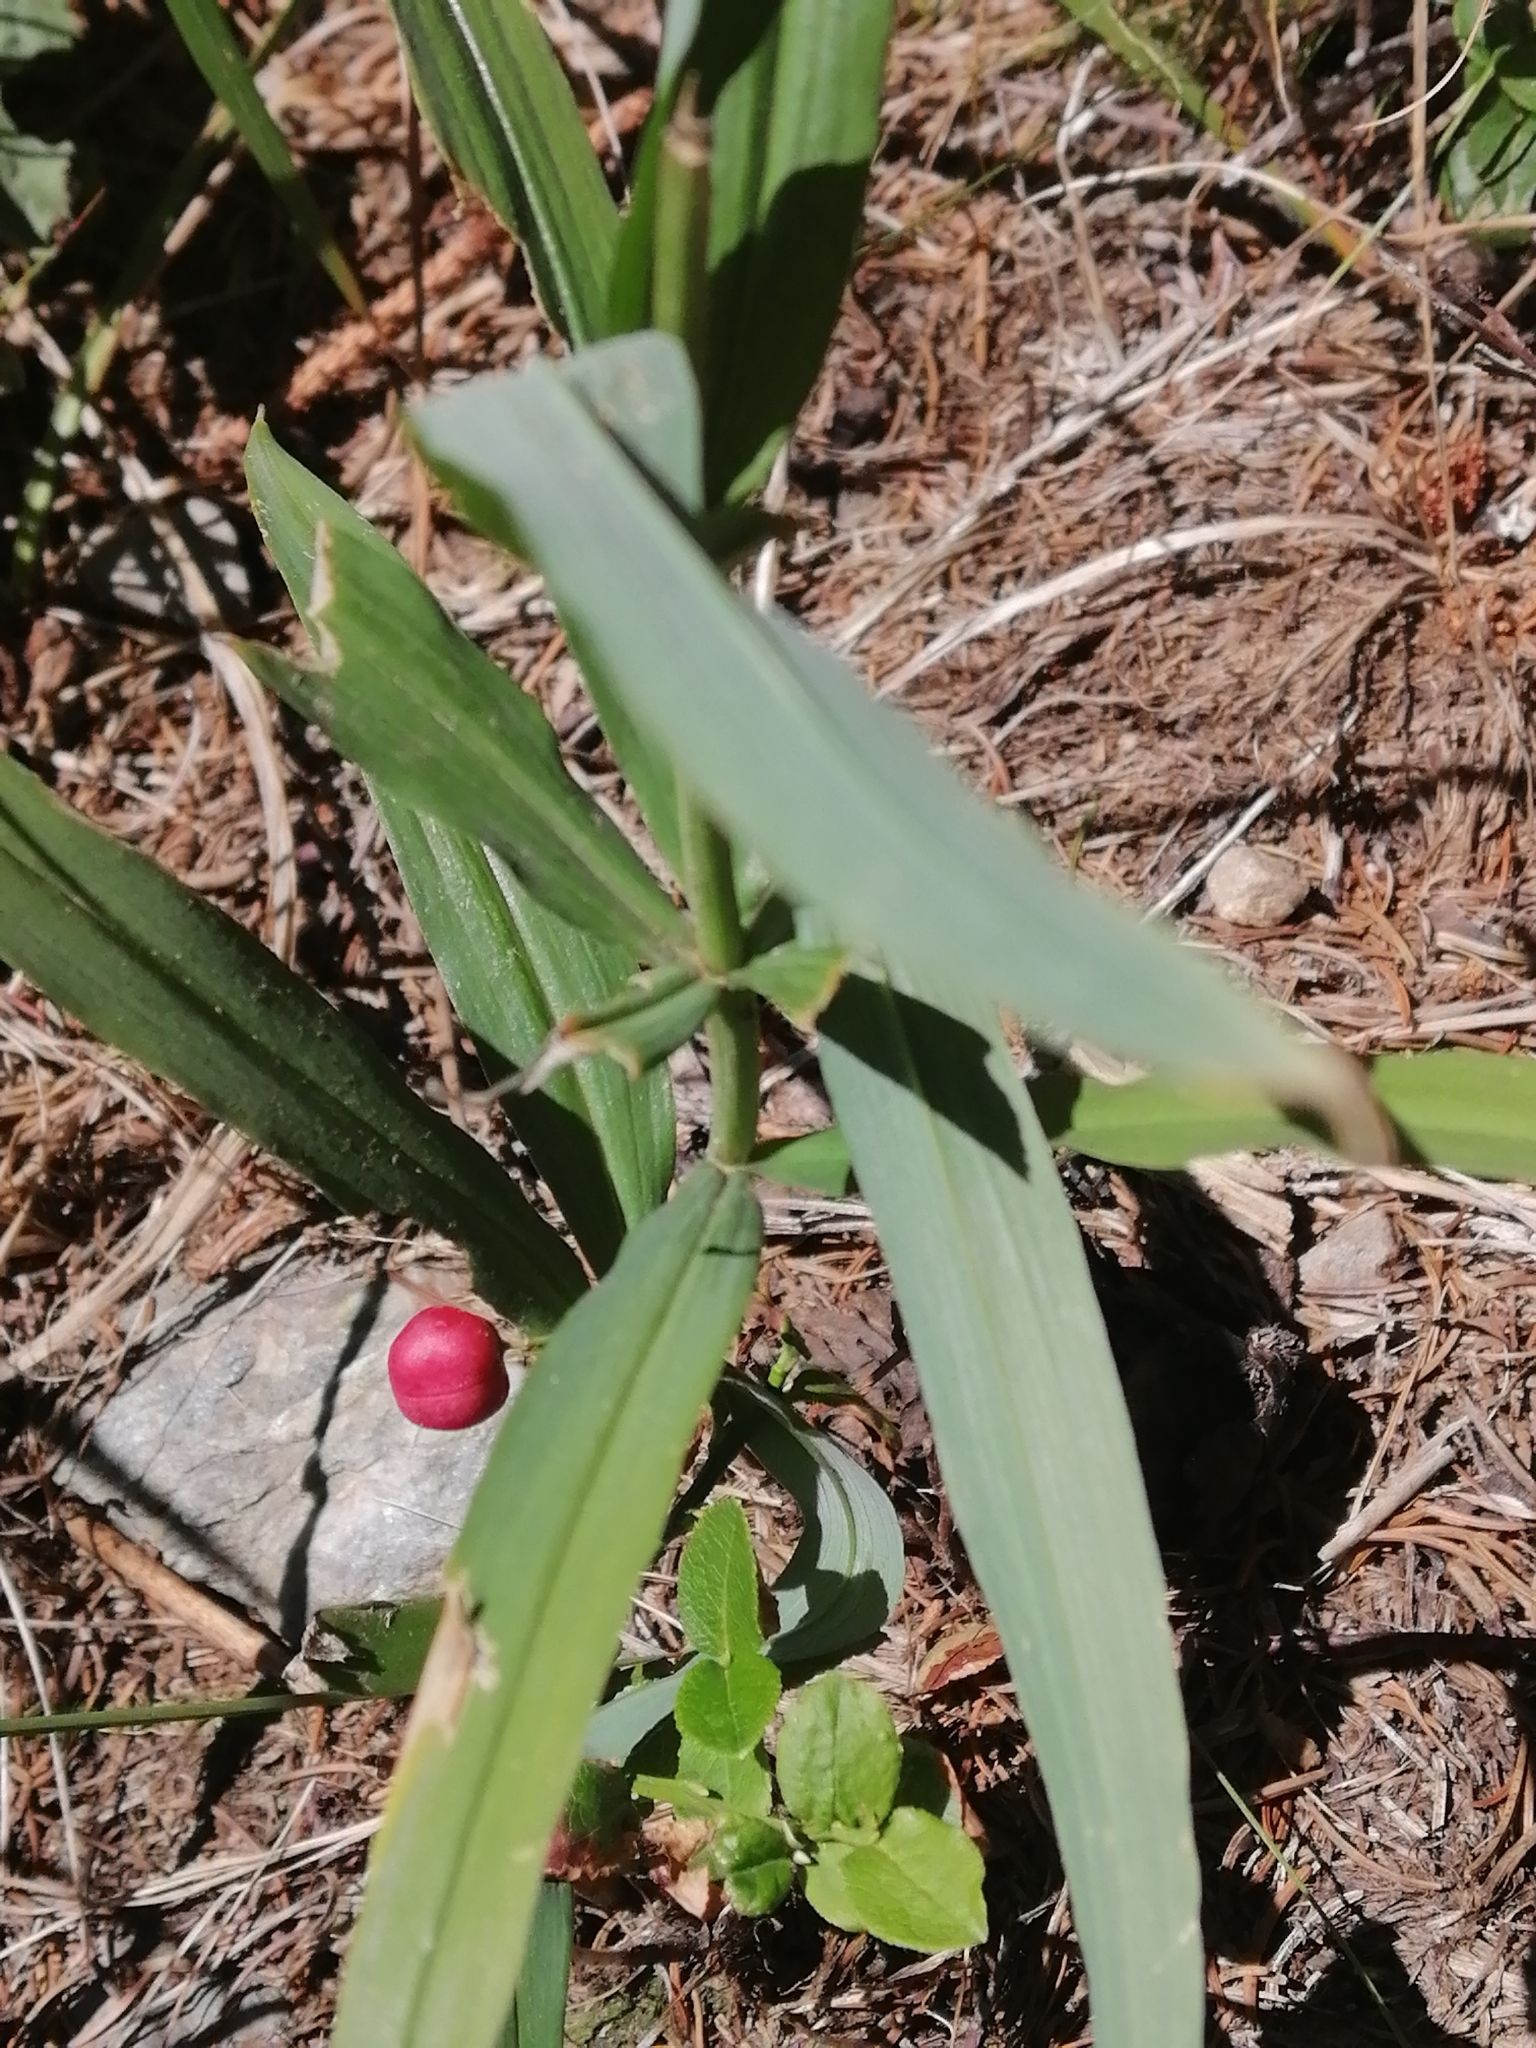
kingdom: Plantae
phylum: Tracheophyta
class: Liliopsida
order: Asparagales
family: Asparagaceae
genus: Polygonatum
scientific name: Polygonatum verticillatum
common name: Whorled solomon's-seal
